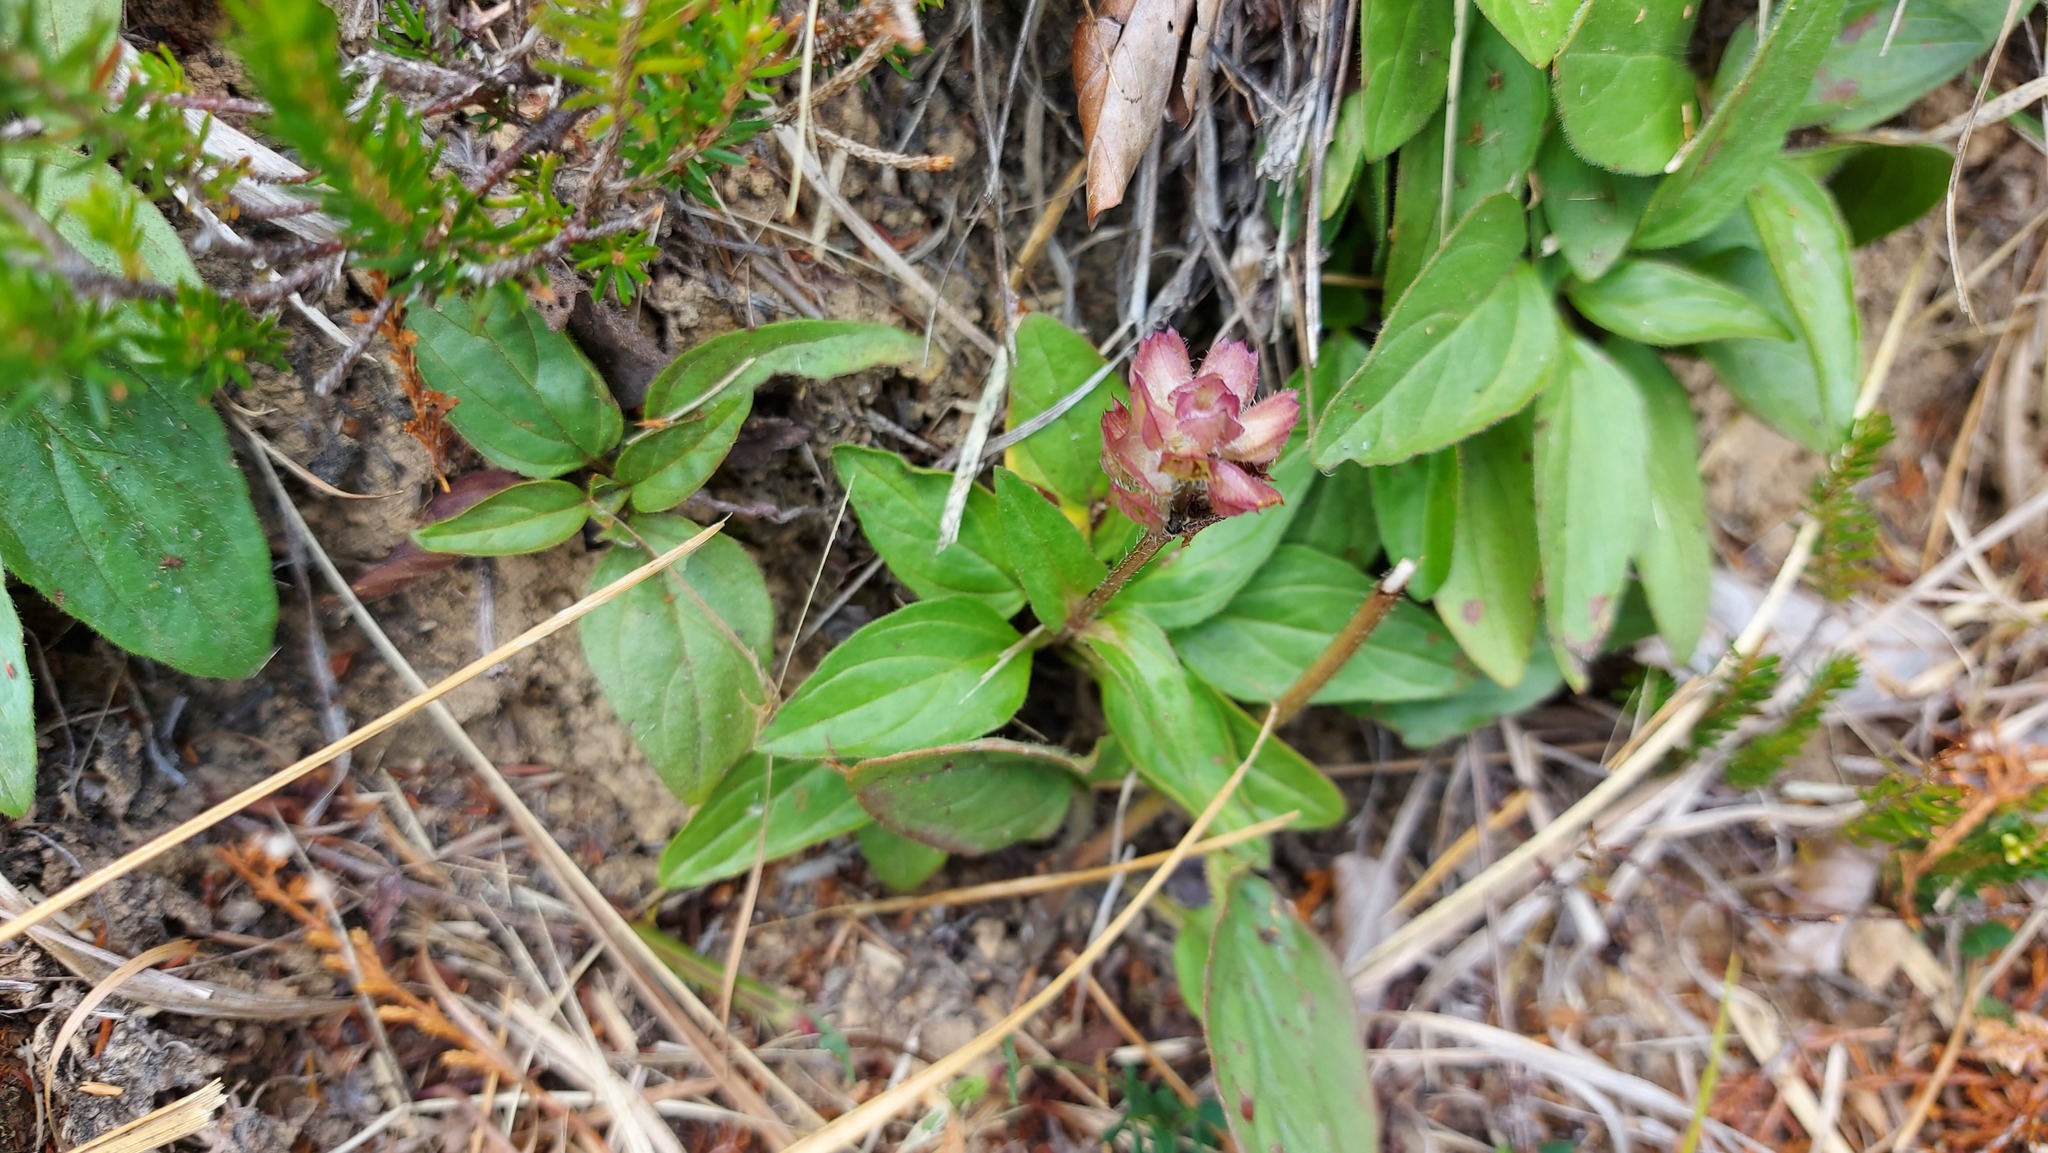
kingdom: Plantae
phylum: Tracheophyta
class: Magnoliopsida
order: Lamiales
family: Lamiaceae
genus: Prunella
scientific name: Prunella grandiflora
